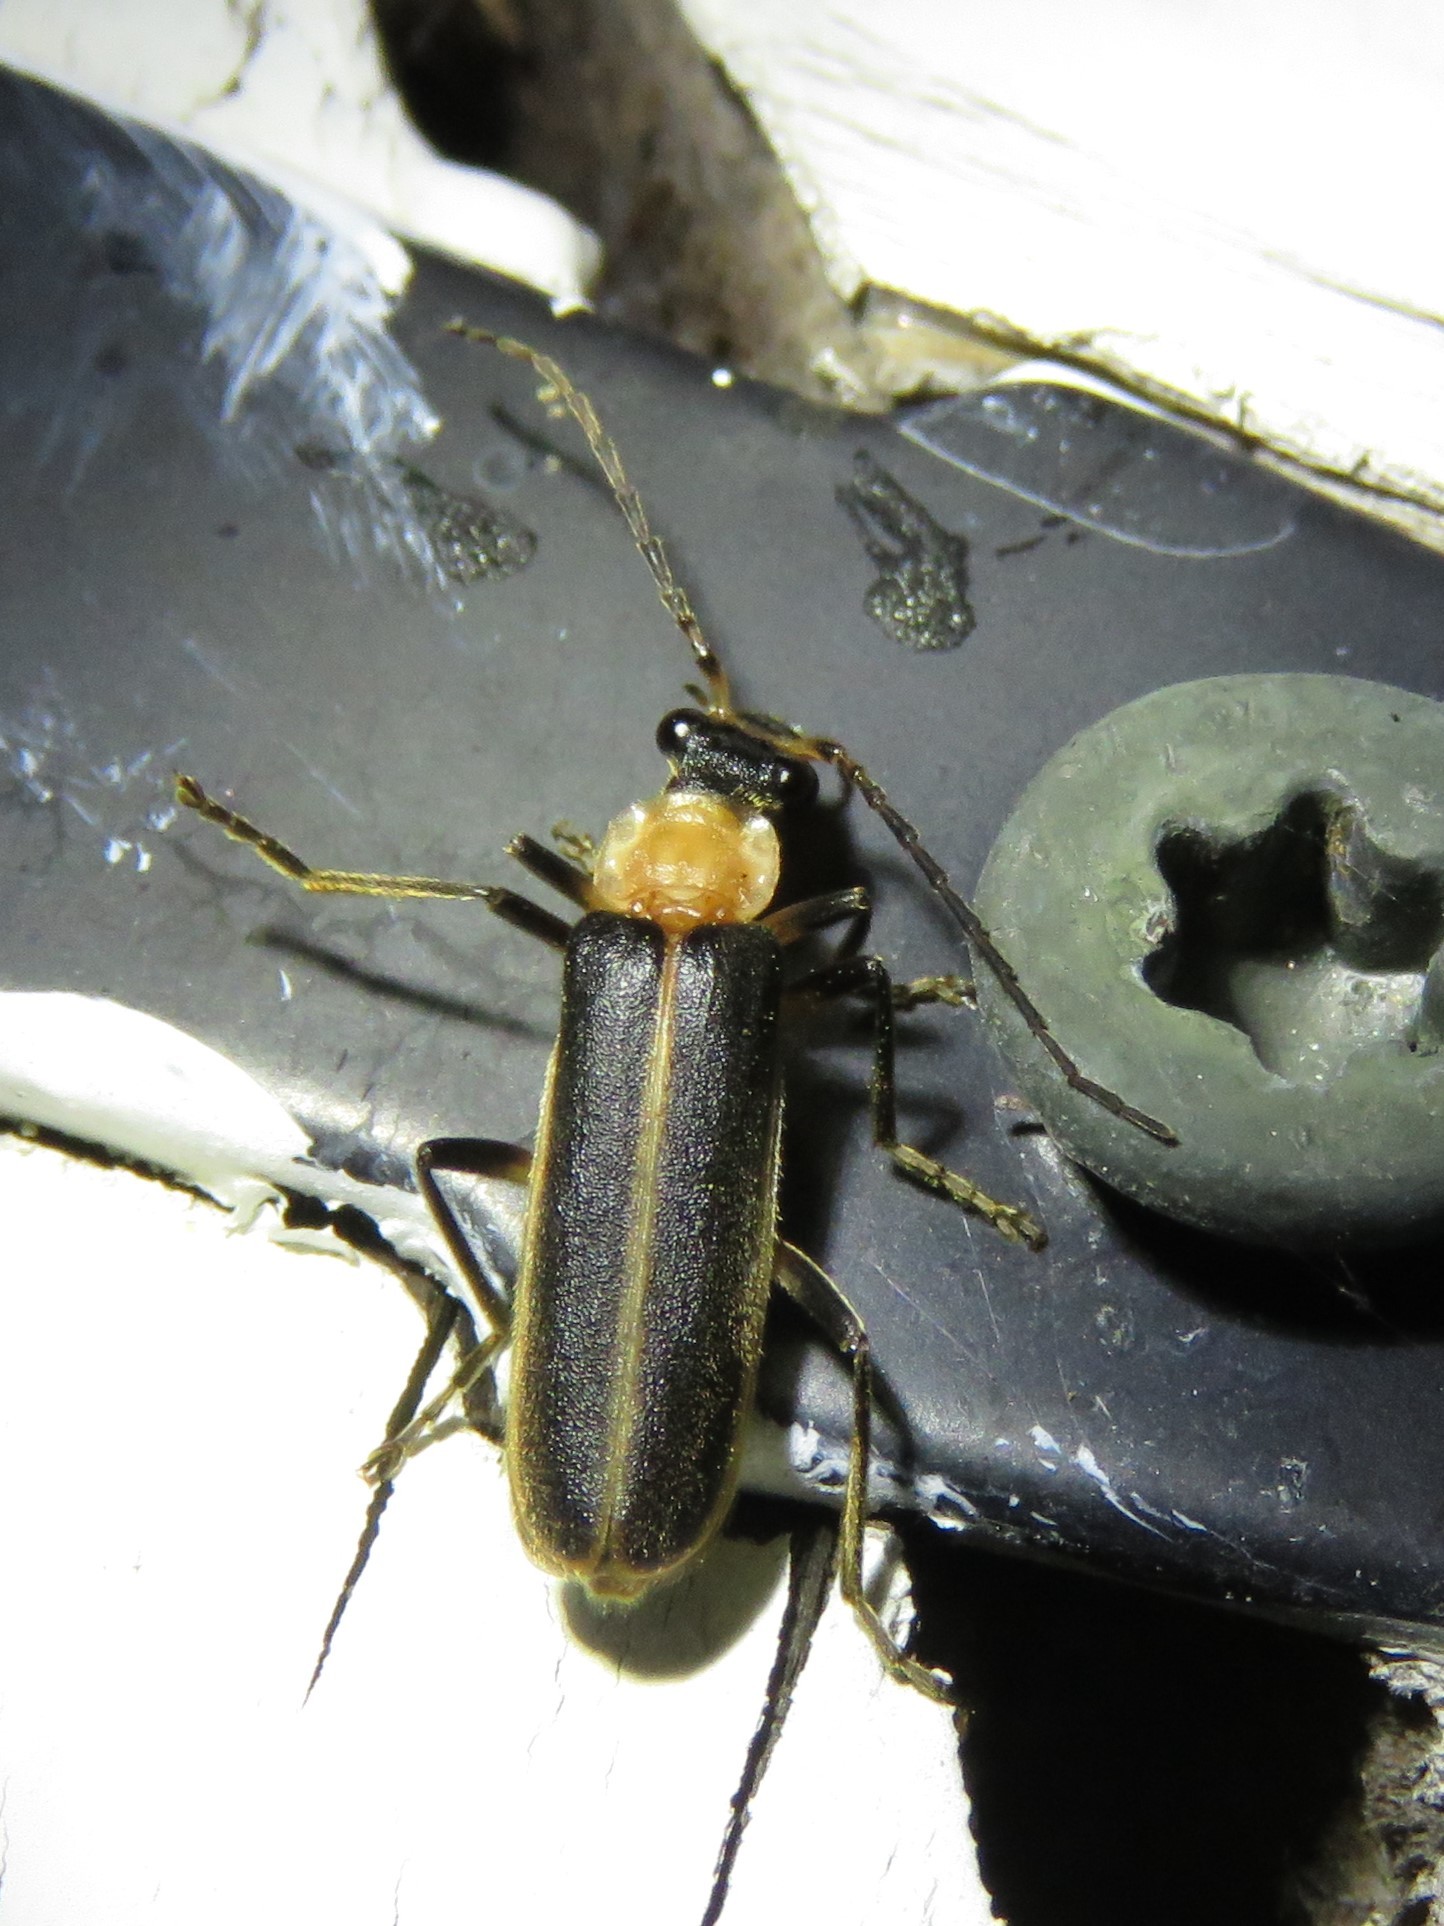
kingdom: Animalia
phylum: Arthropoda
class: Insecta
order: Coleoptera
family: Cantharidae
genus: Podabrus
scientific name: Podabrus flavicollis
